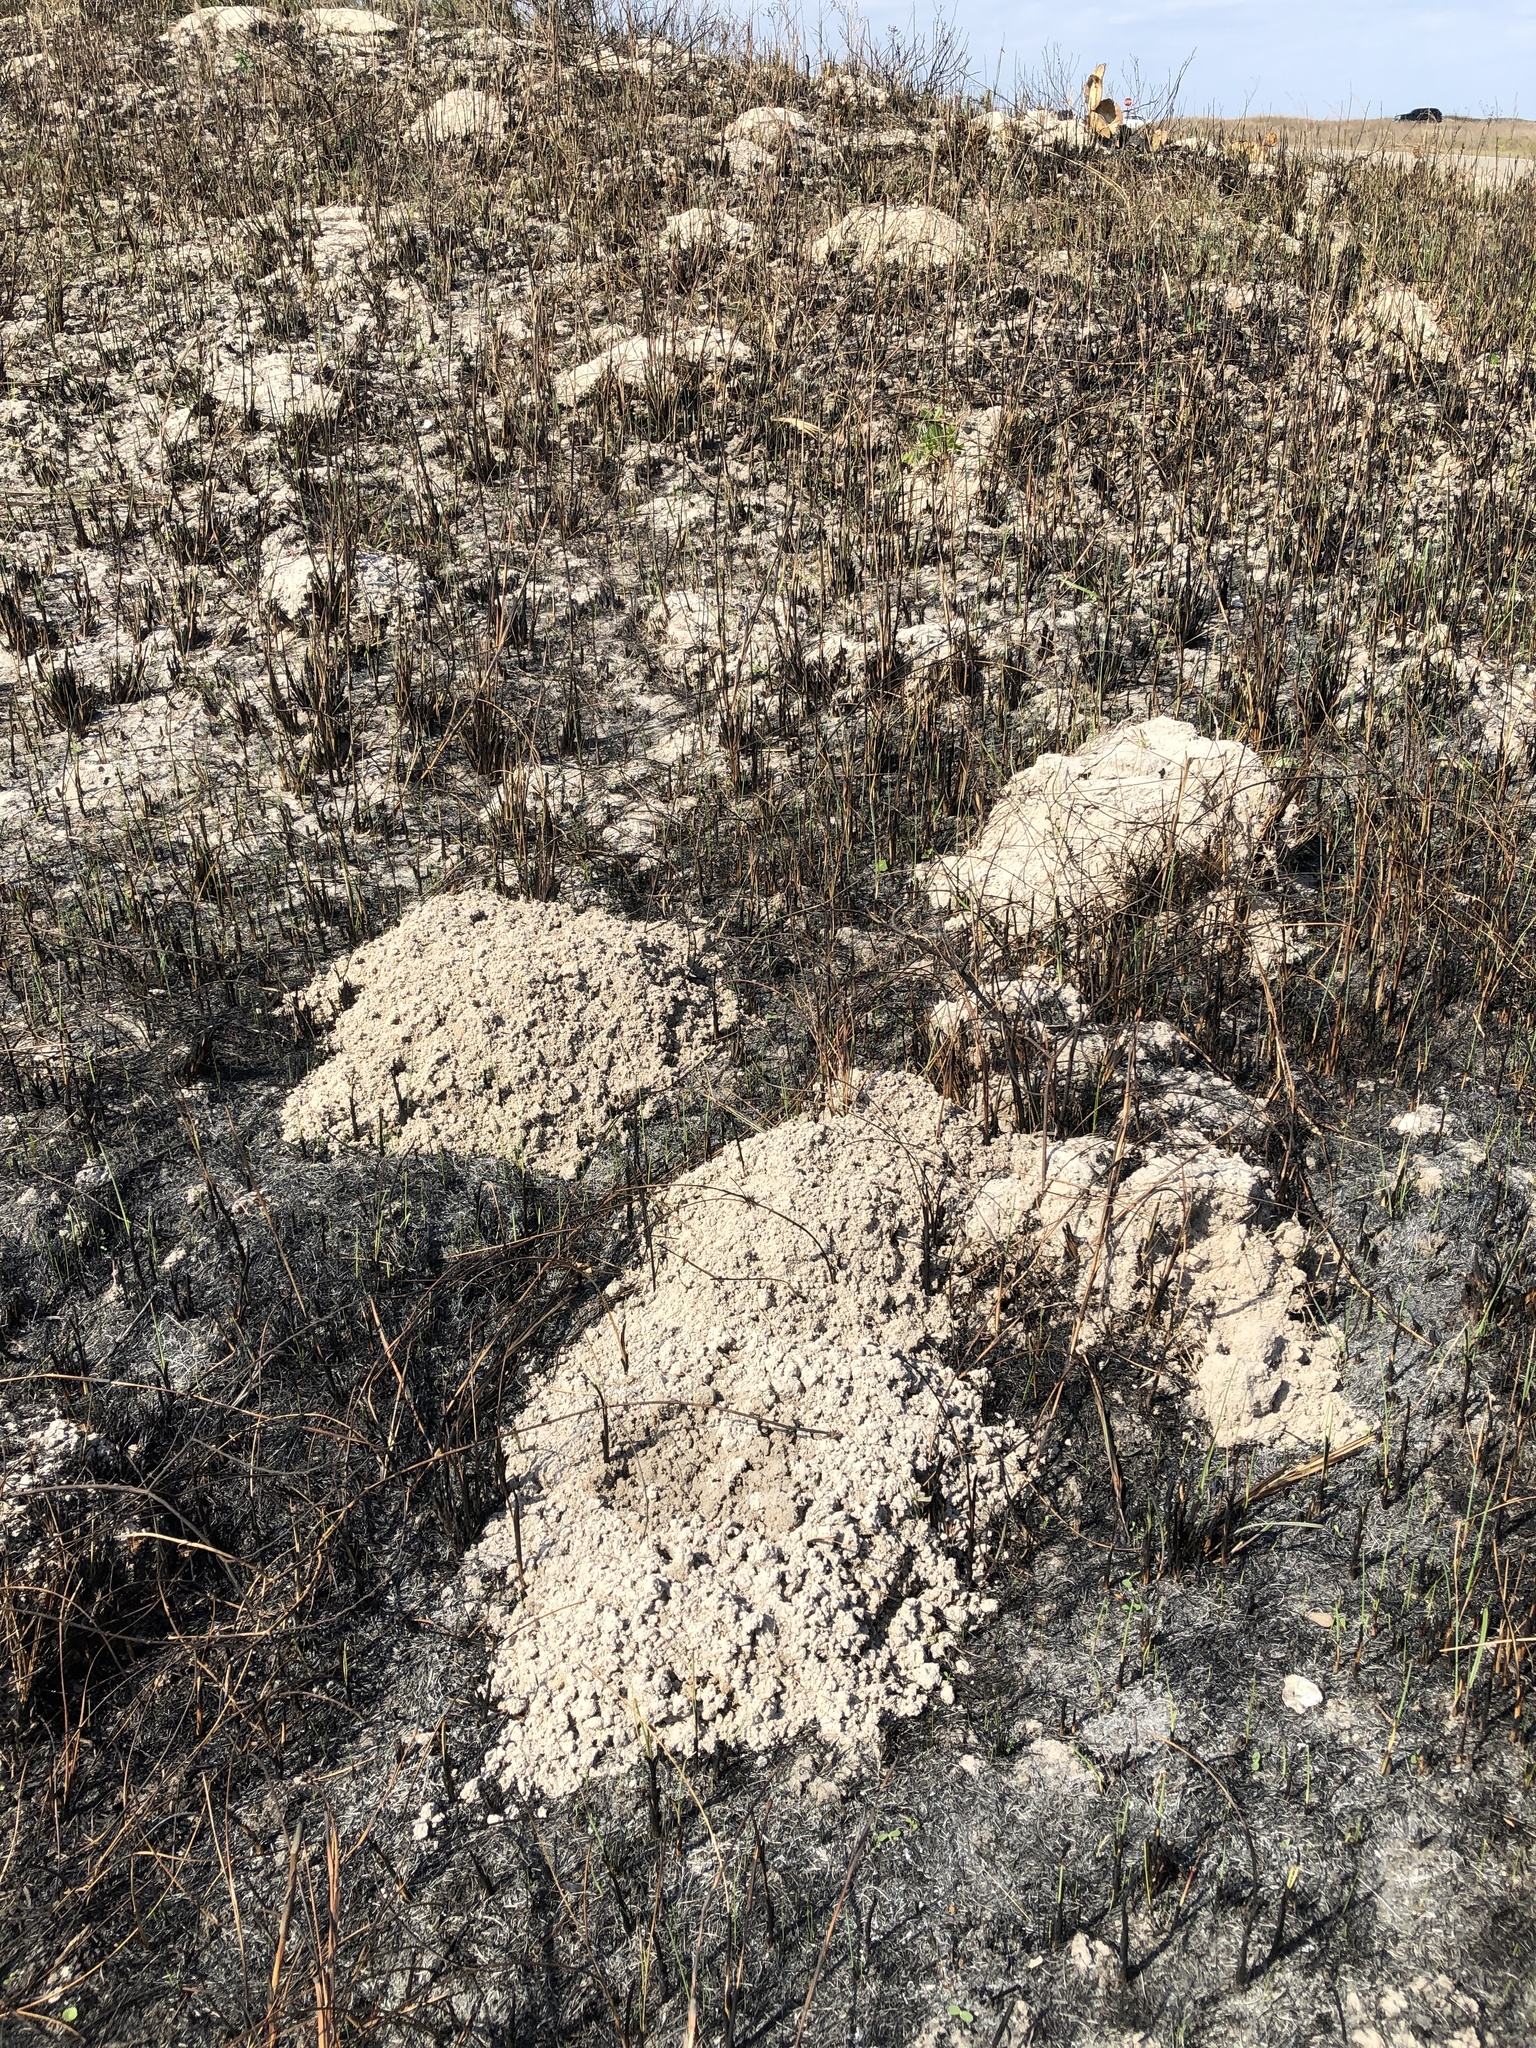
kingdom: Animalia
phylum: Chordata
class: Mammalia
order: Rodentia
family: Geomyidae
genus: Geomys
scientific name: Geomys personatus
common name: Texas pocket gopher
